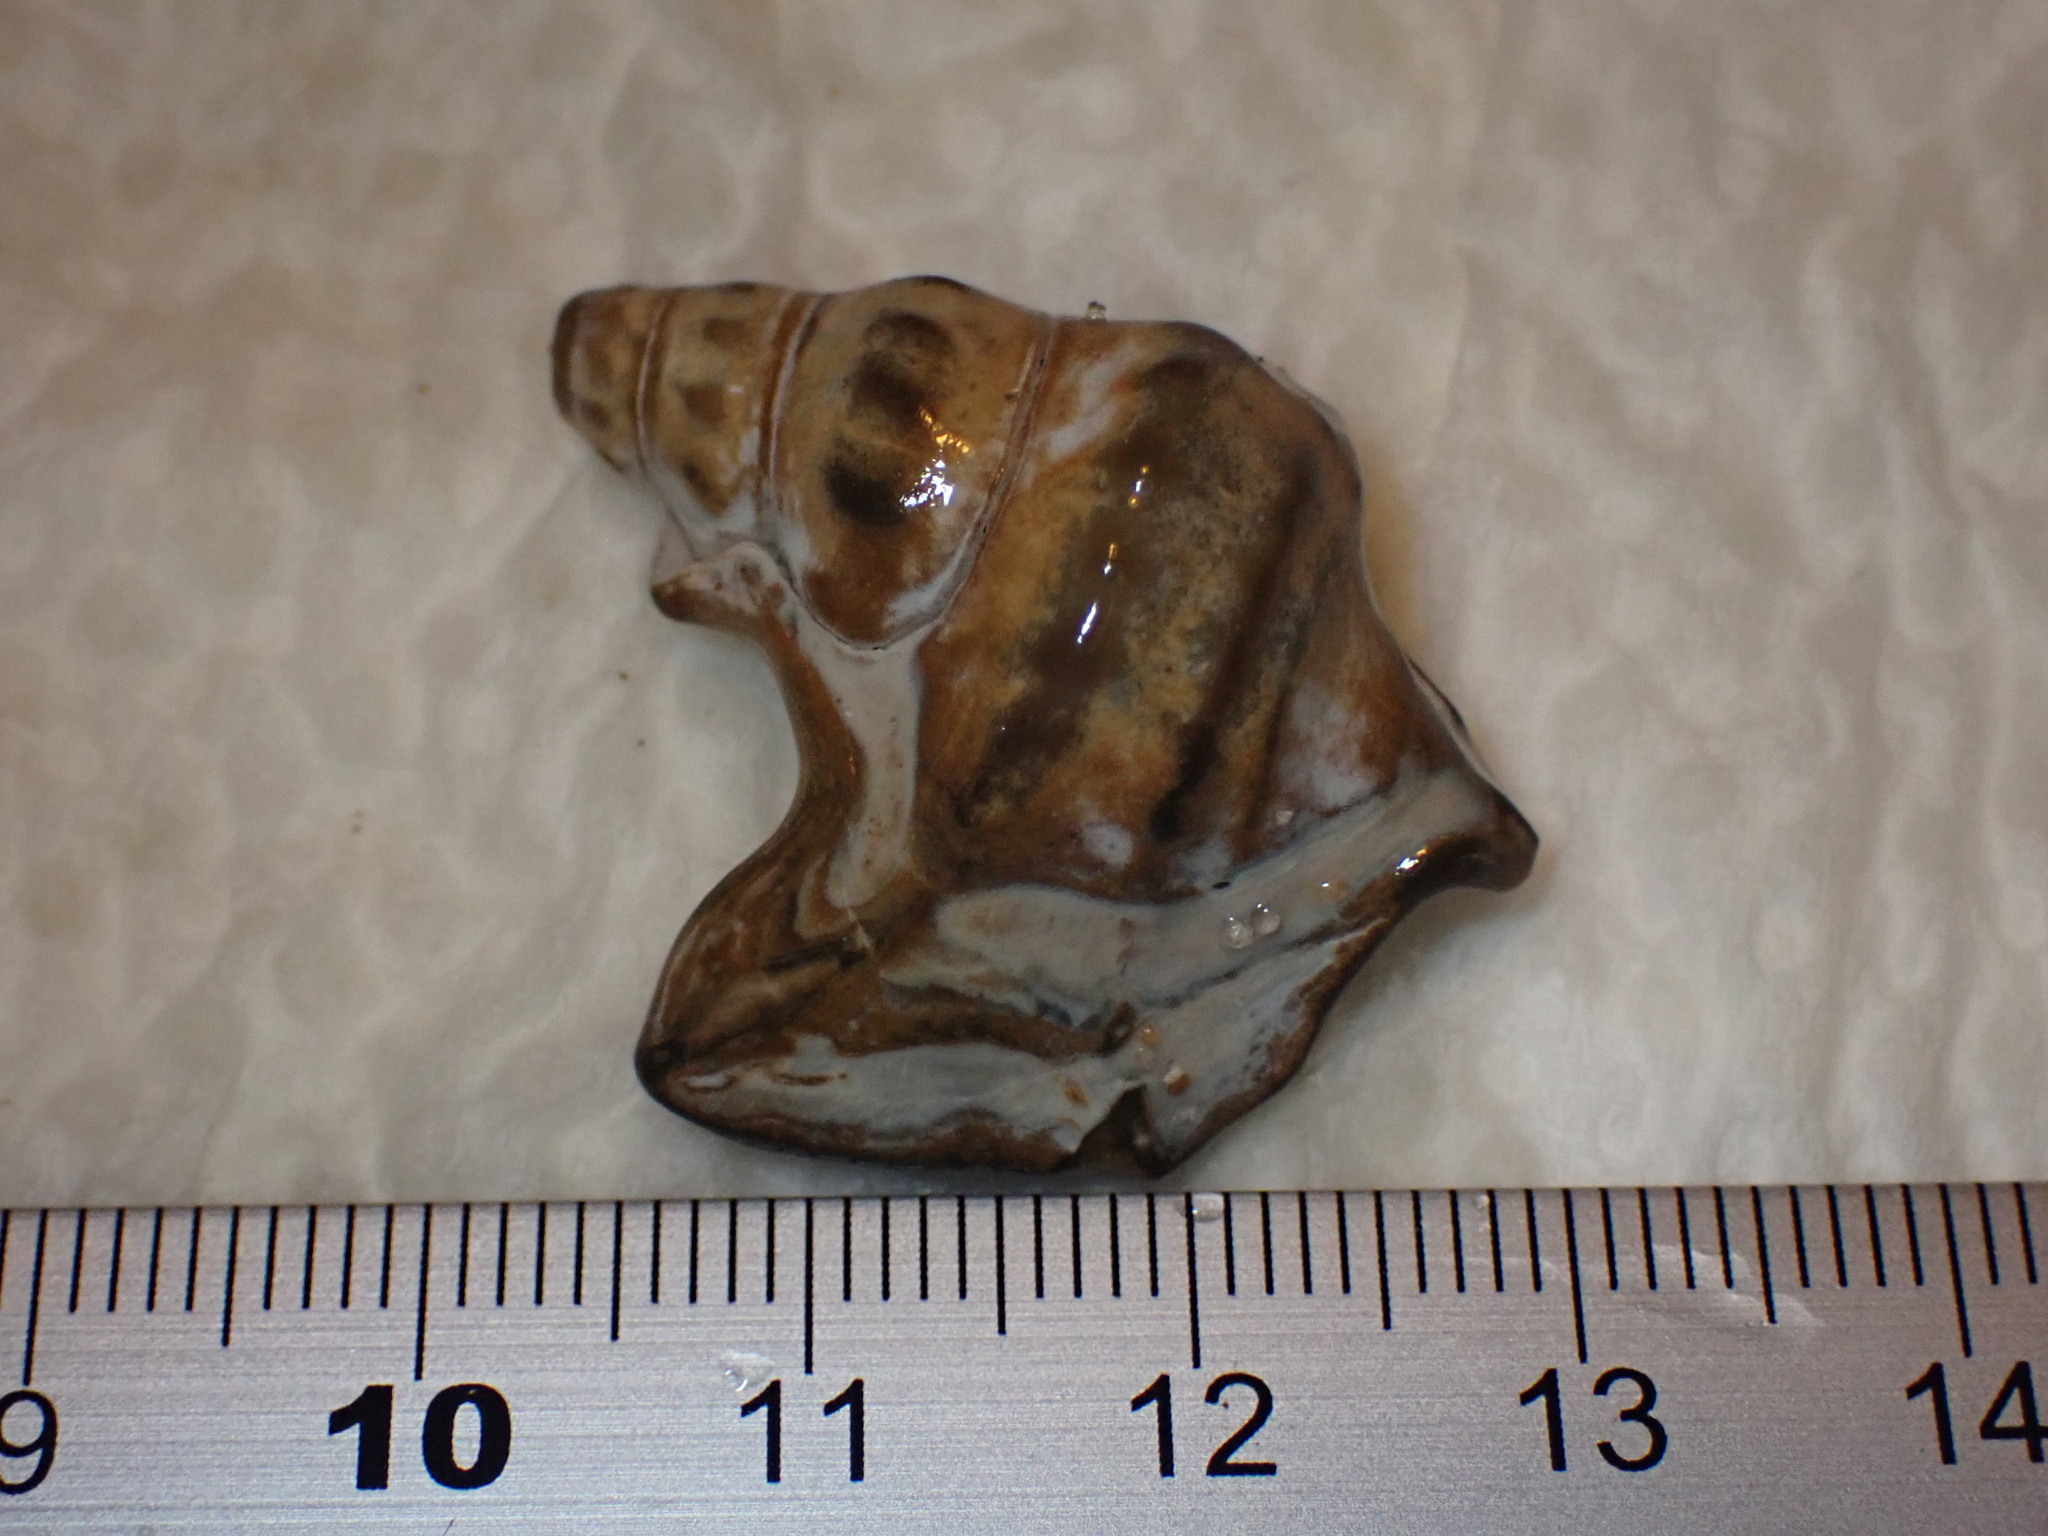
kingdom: Animalia
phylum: Mollusca
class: Gastropoda
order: Littorinimorpha
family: Aporrhaidae
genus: Aporrhais
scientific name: Aporrhais pespelecani
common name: Common pelican’s foot
